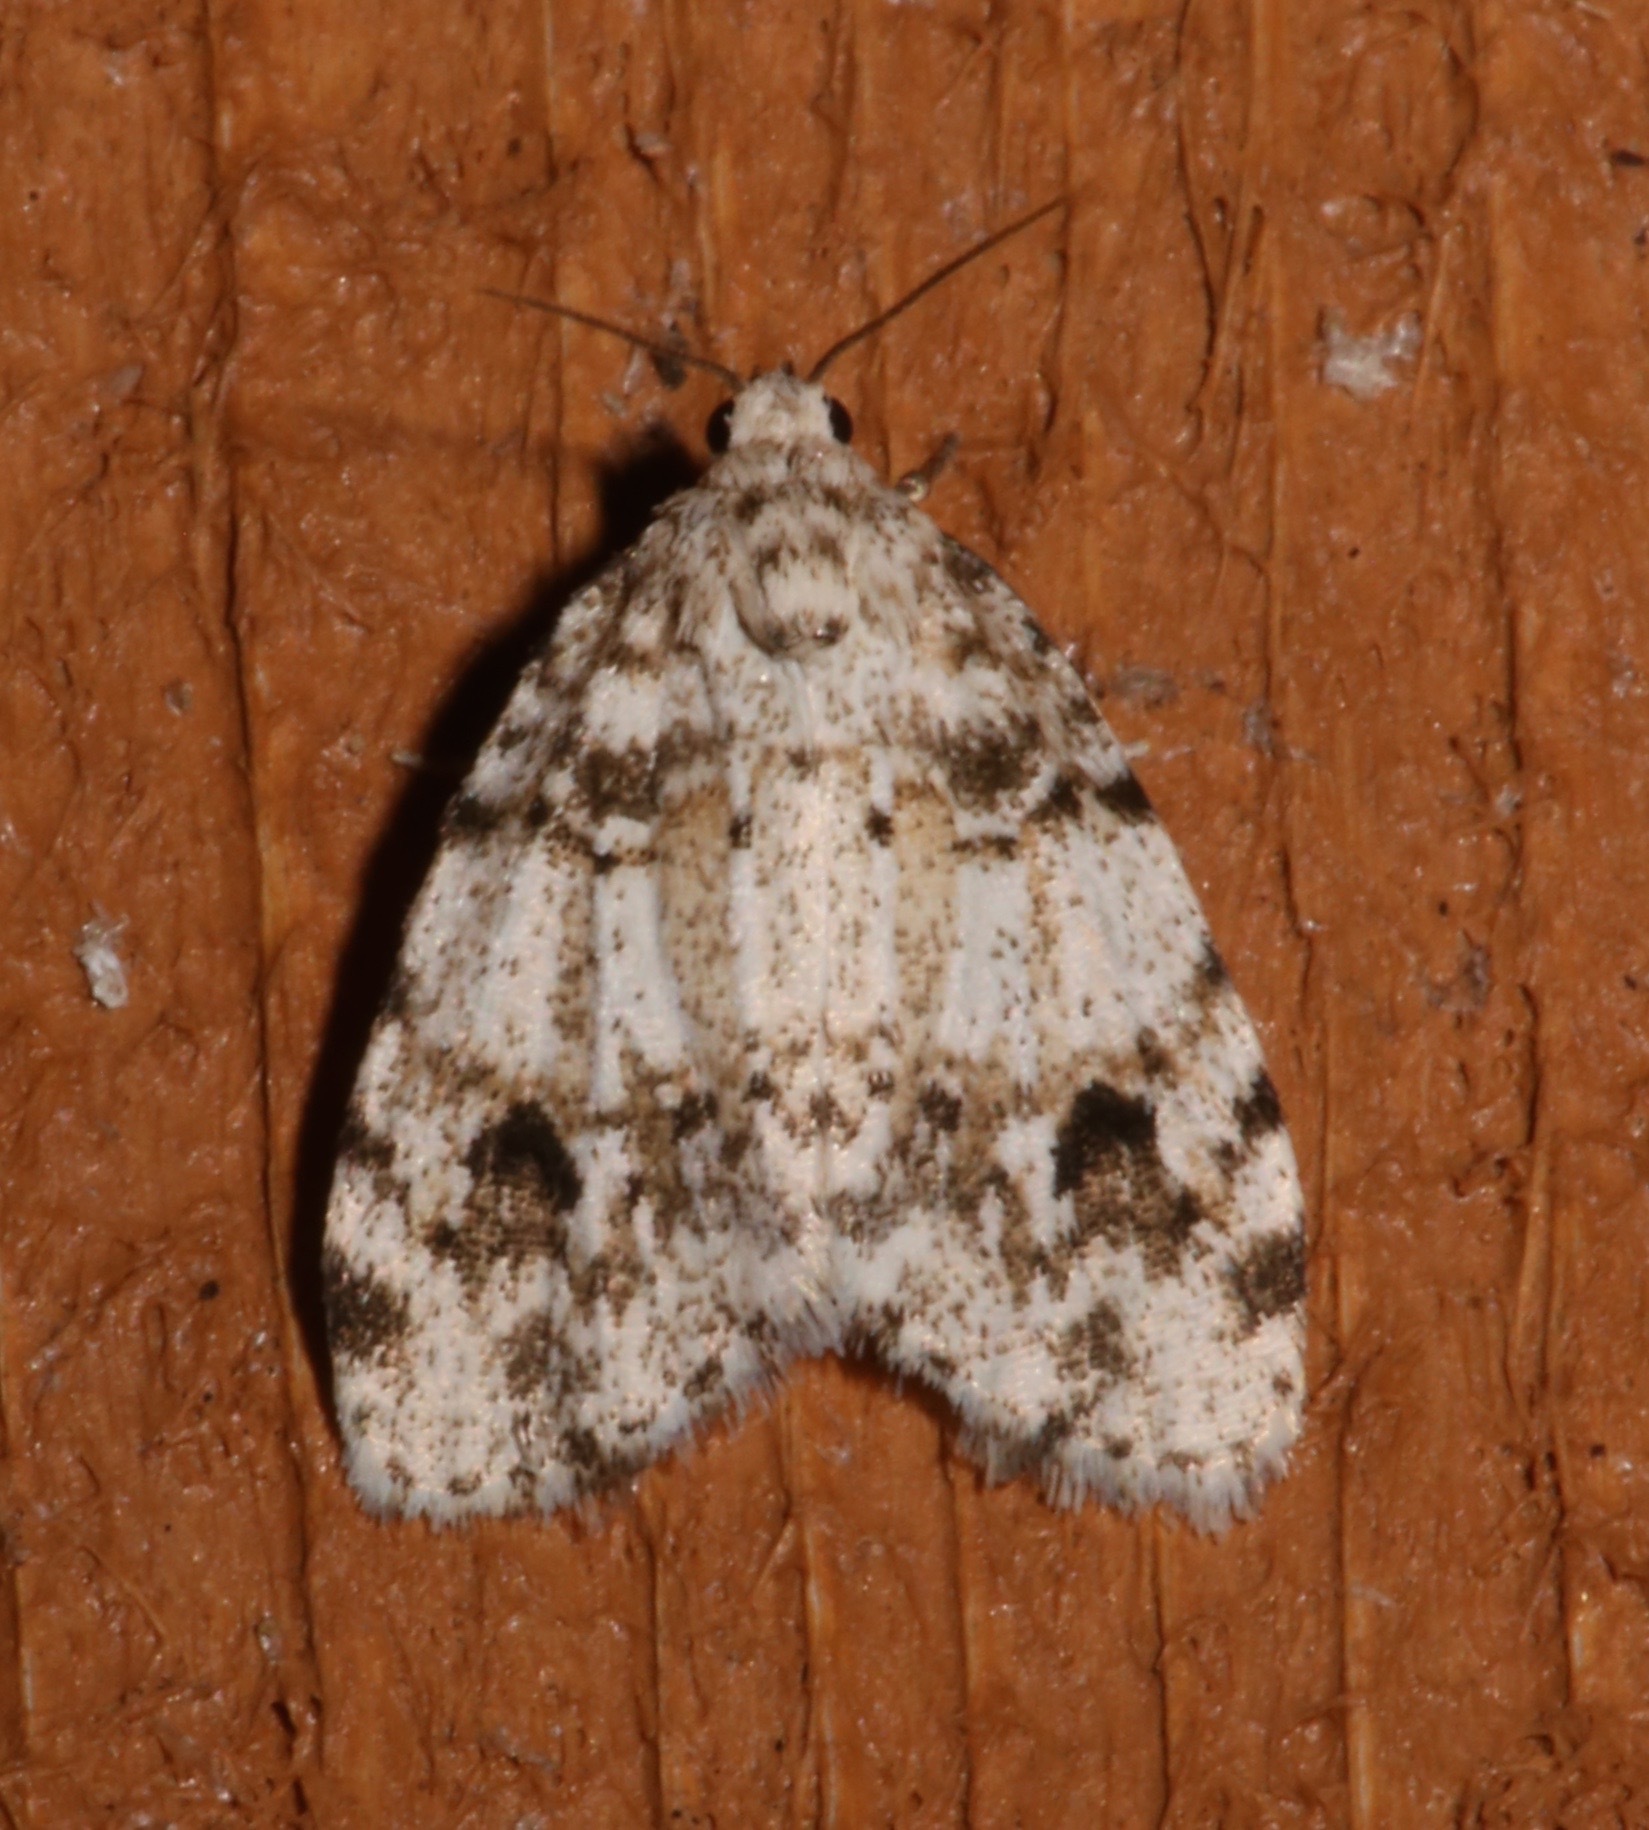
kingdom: Animalia
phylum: Arthropoda
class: Insecta
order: Lepidoptera
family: Erebidae
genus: Clemensia
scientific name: Clemensia ochreata
